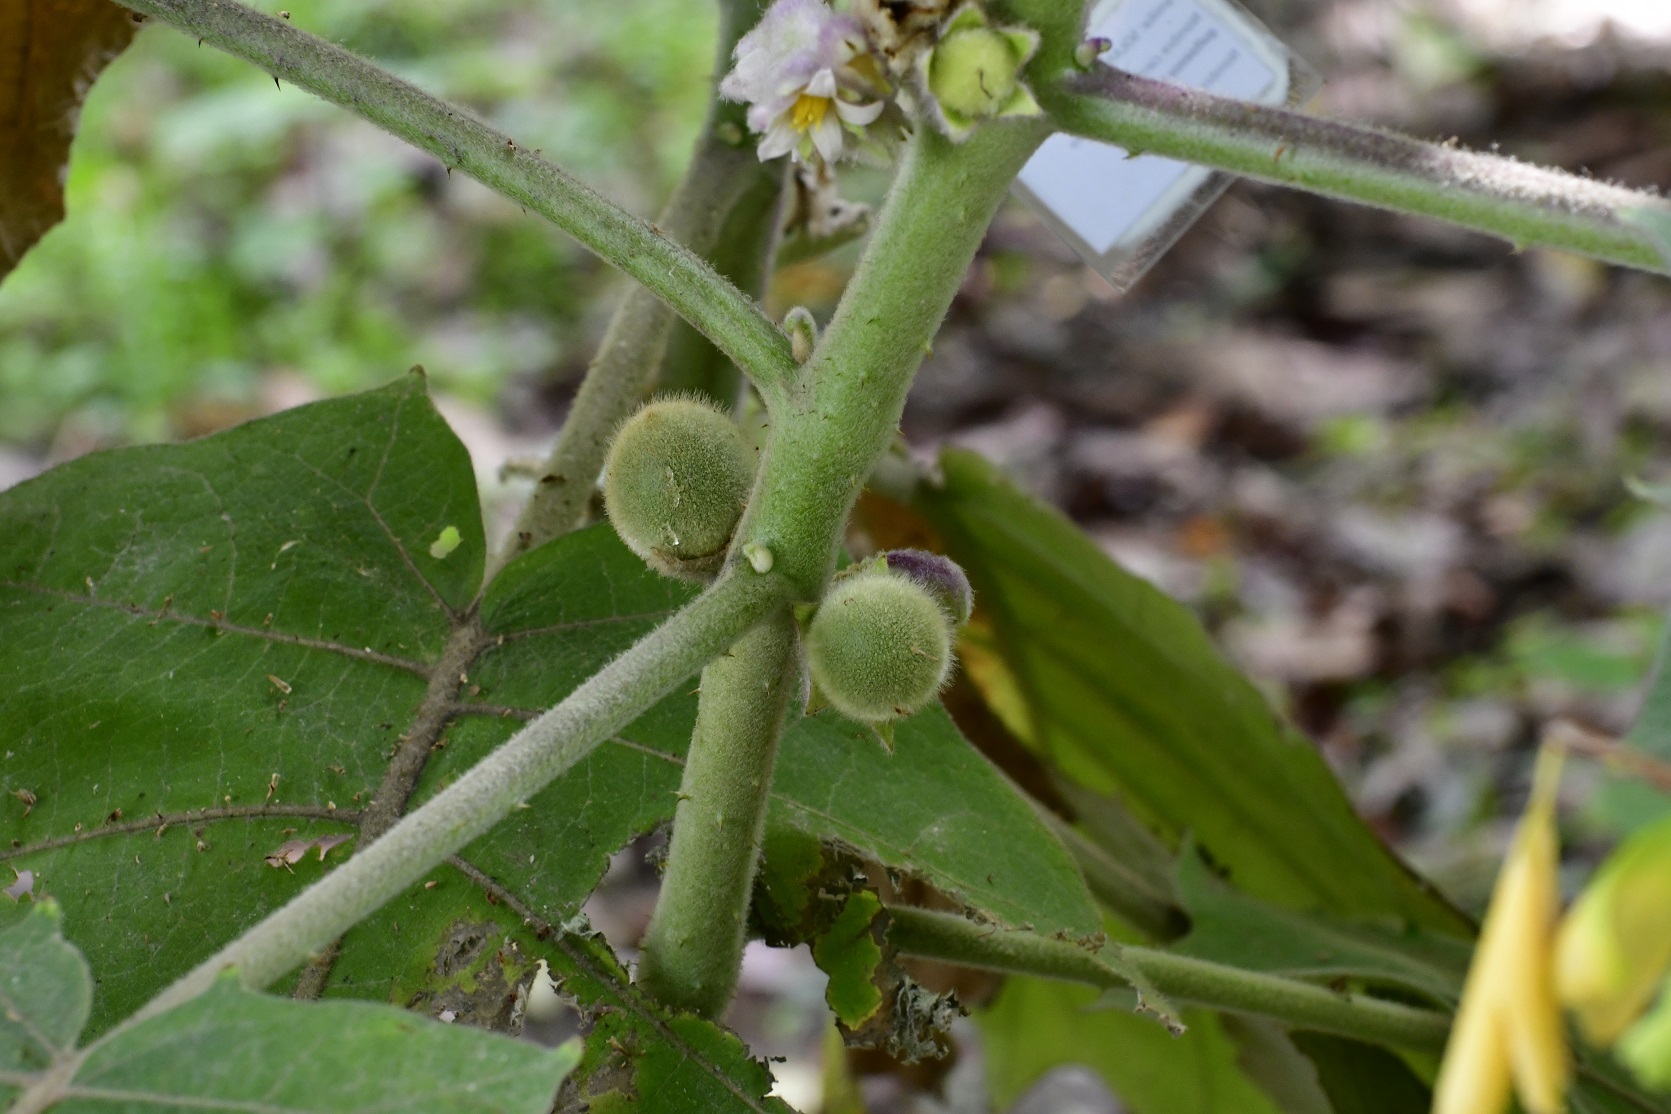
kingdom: Plantae
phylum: Tracheophyta
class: Magnoliopsida
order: Solanales
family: Solanaceae
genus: Solanum
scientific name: Solanum quitoense
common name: Quito-orange
